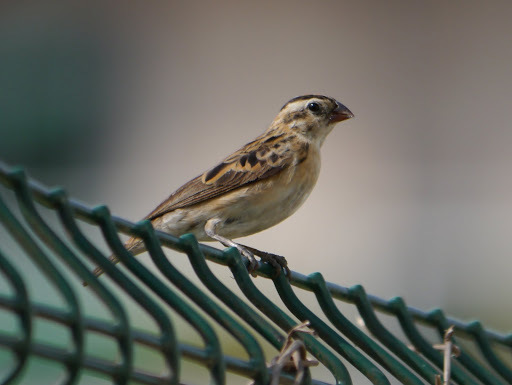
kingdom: Animalia
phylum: Chordata
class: Aves
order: Passeriformes
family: Viduidae
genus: Vidua
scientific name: Vidua macroura
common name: Pin-tailed whydah
